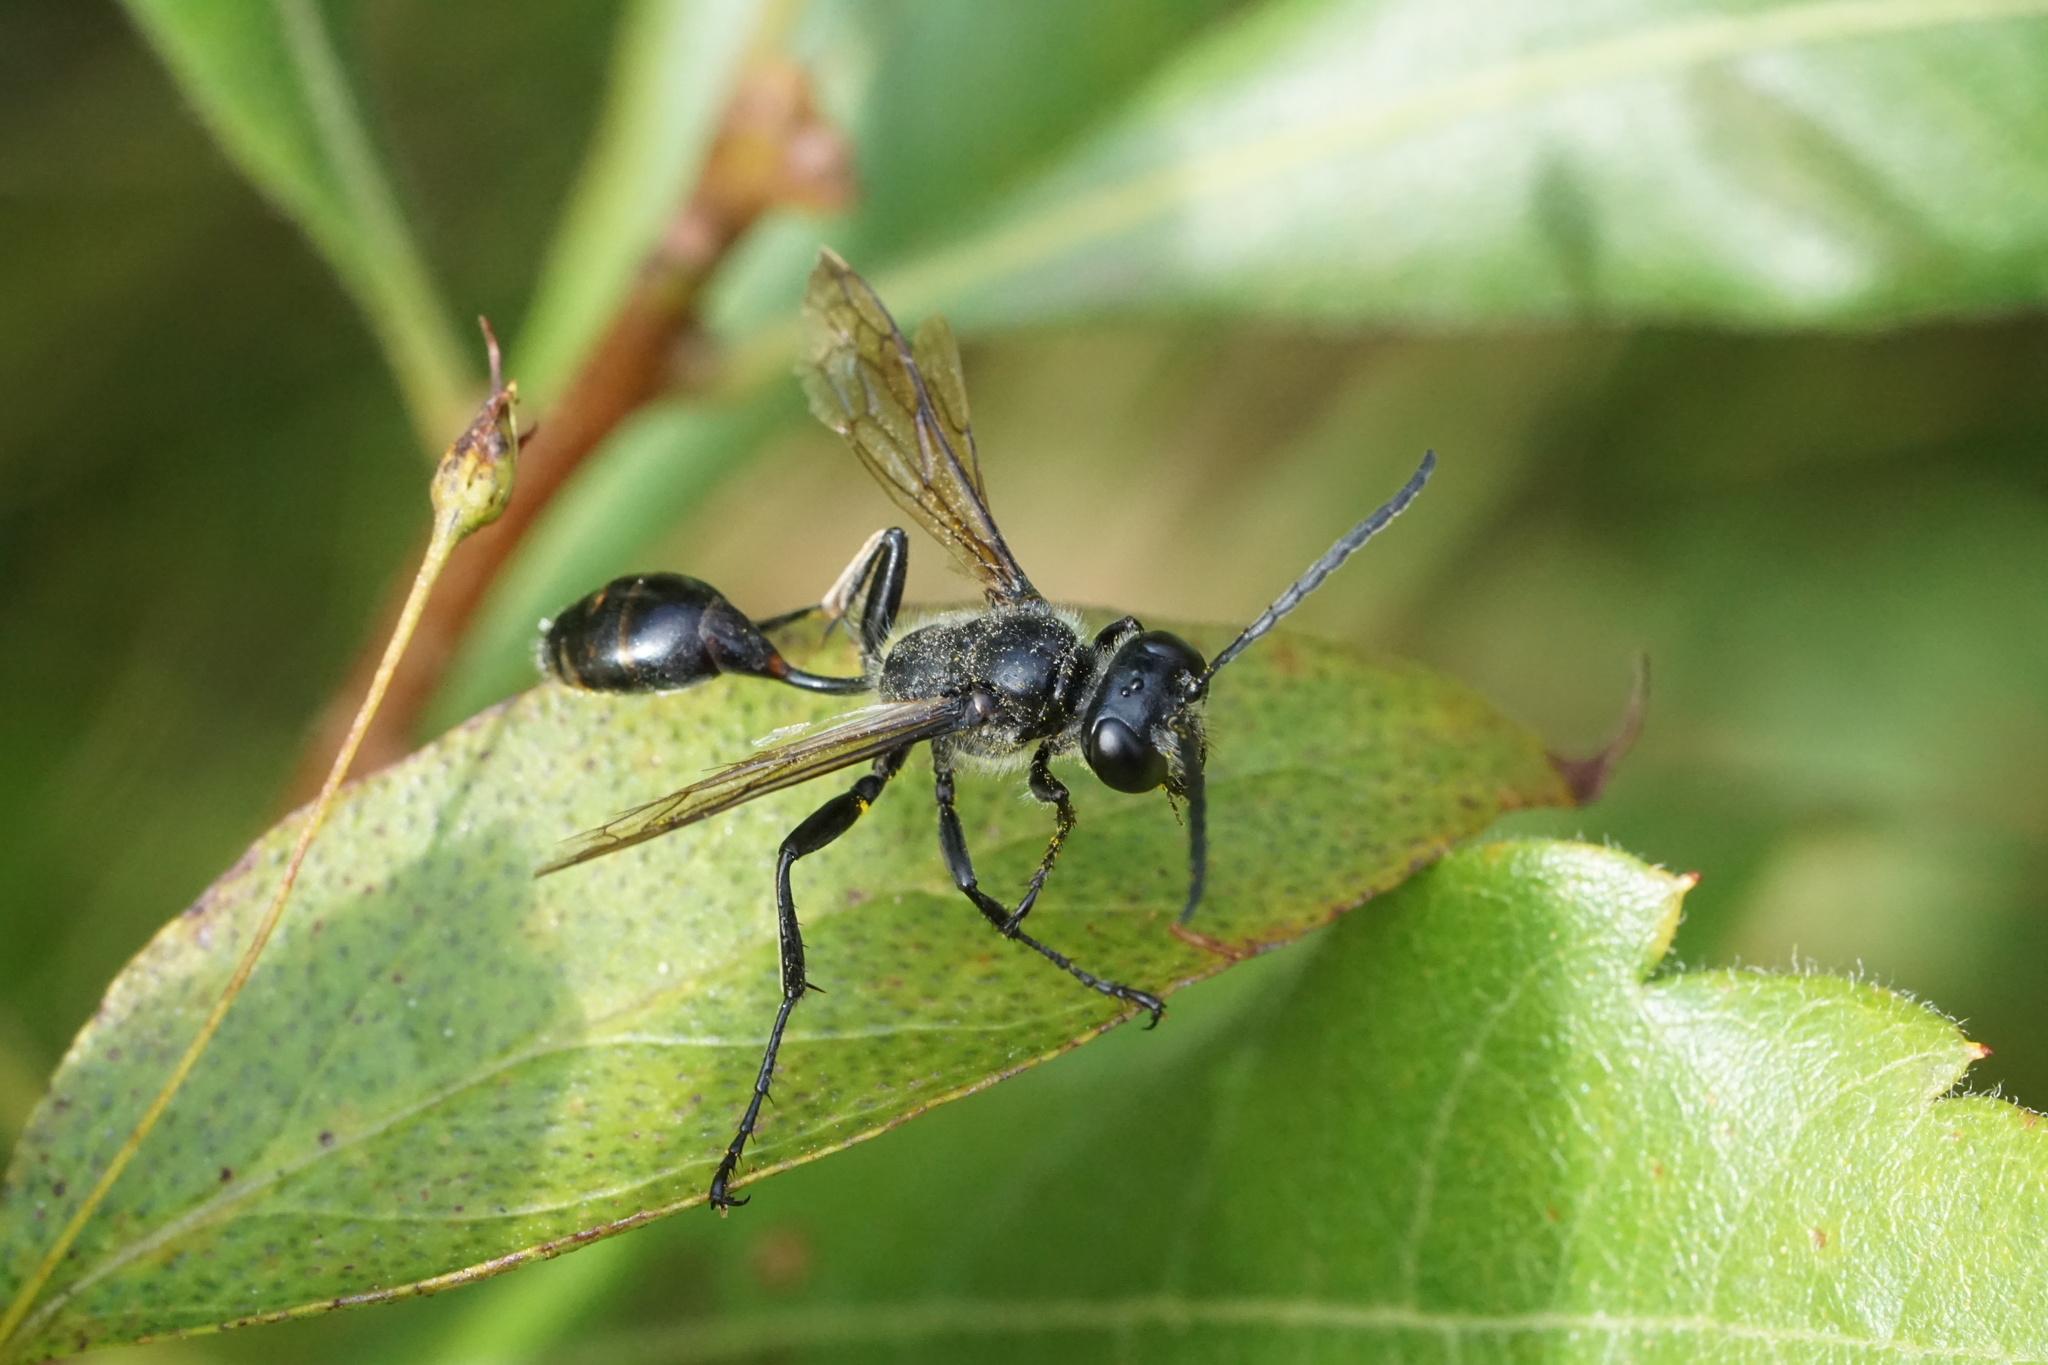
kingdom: Animalia
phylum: Arthropoda
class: Insecta
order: Hymenoptera
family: Sphecidae
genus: Isodontia
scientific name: Isodontia mexicana
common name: Mud dauber
